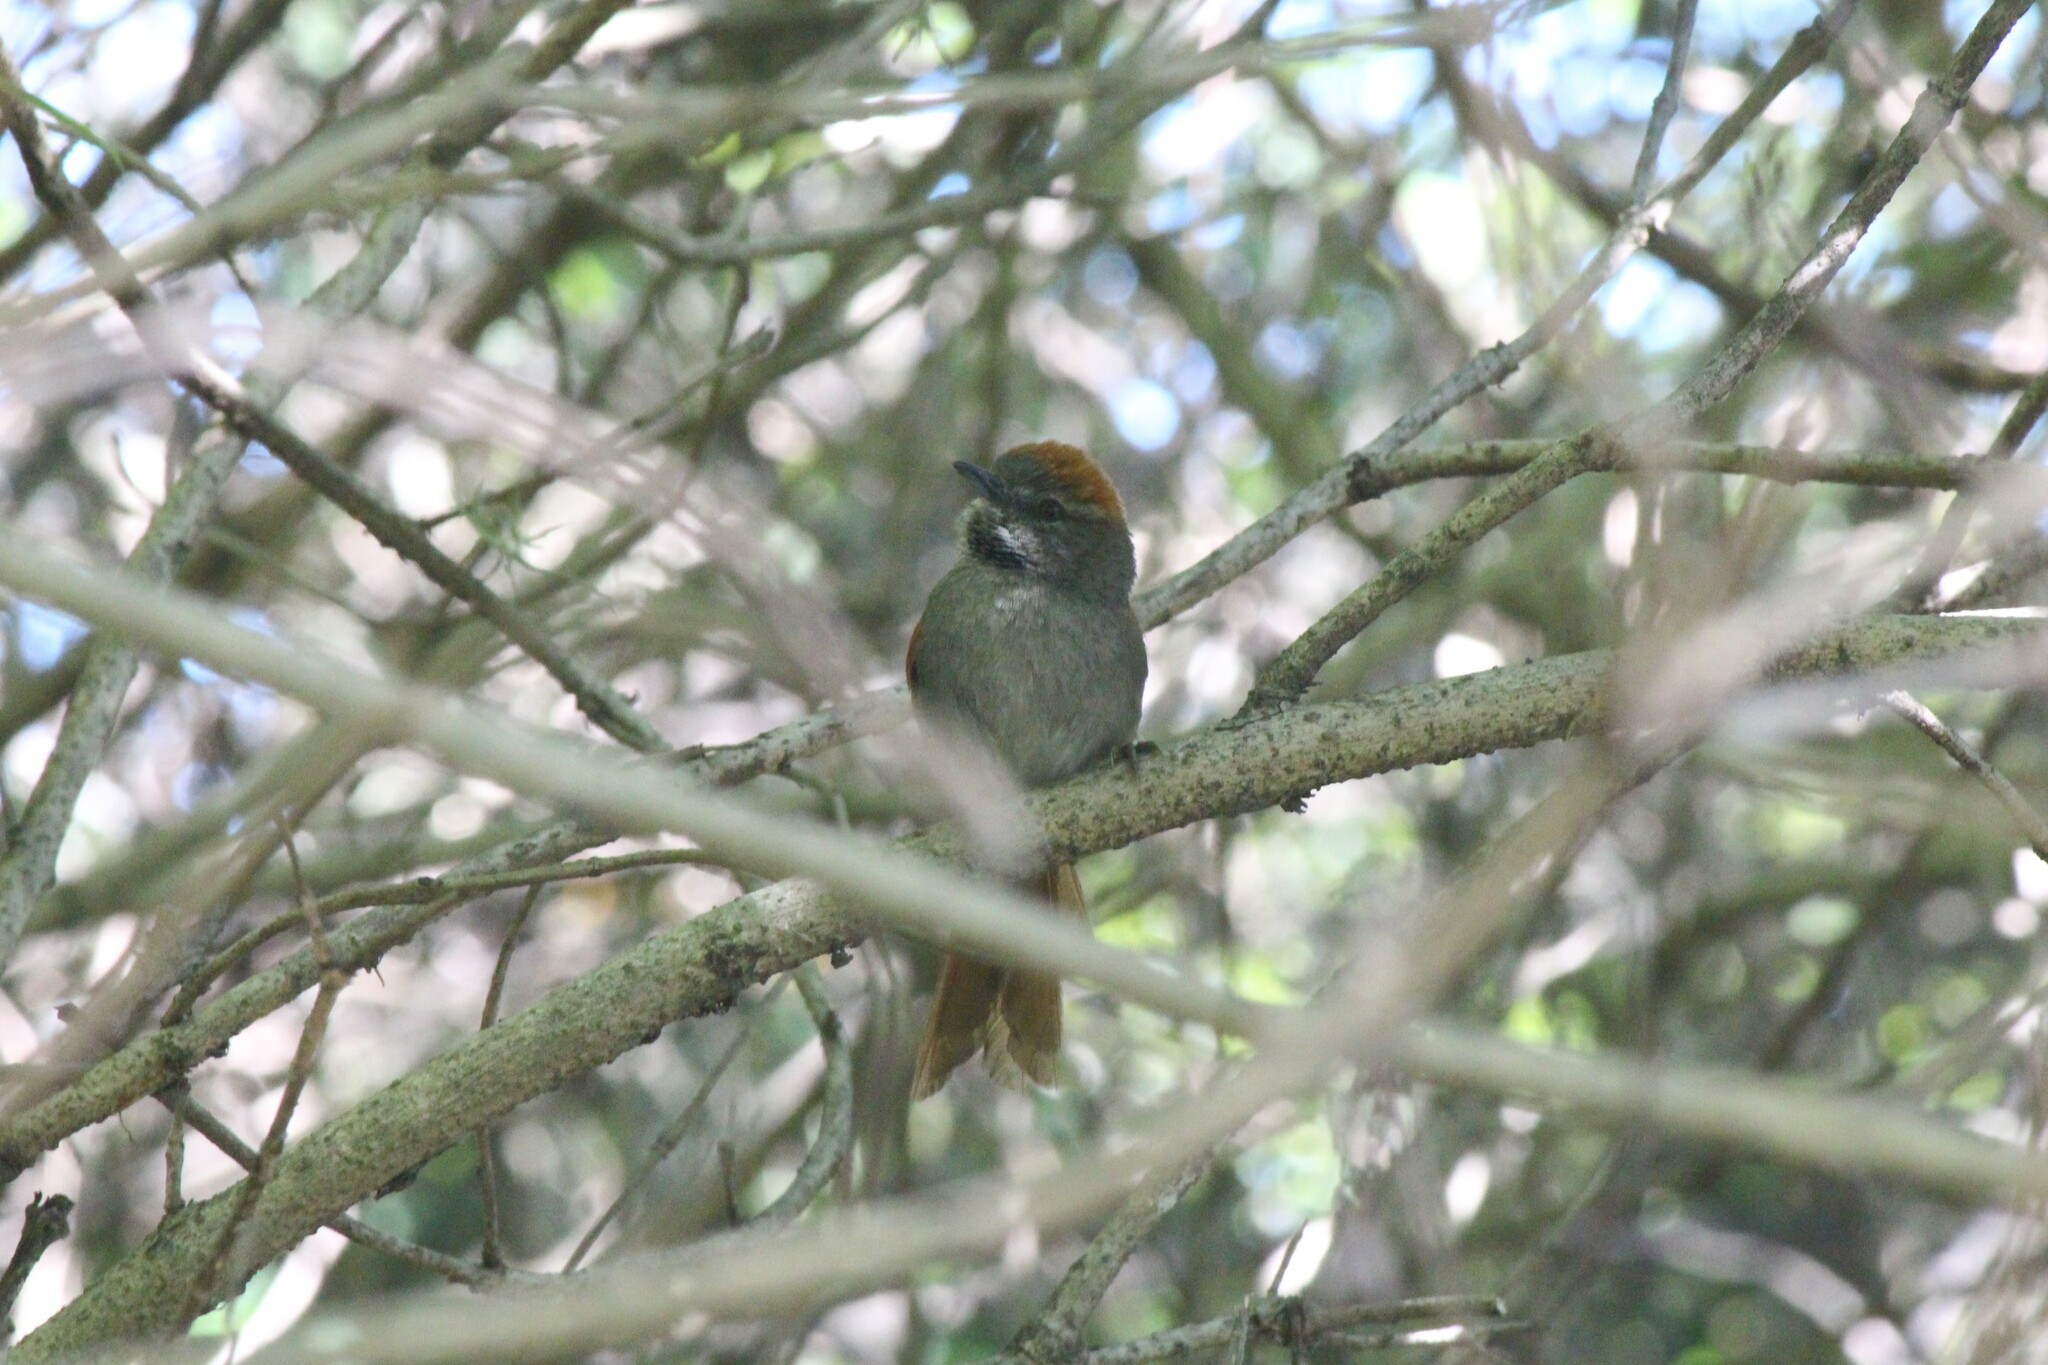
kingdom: Animalia
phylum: Chordata
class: Aves
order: Passeriformes
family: Furnariidae
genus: Synallaxis
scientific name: Synallaxis azarae
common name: Azara's spinetail
